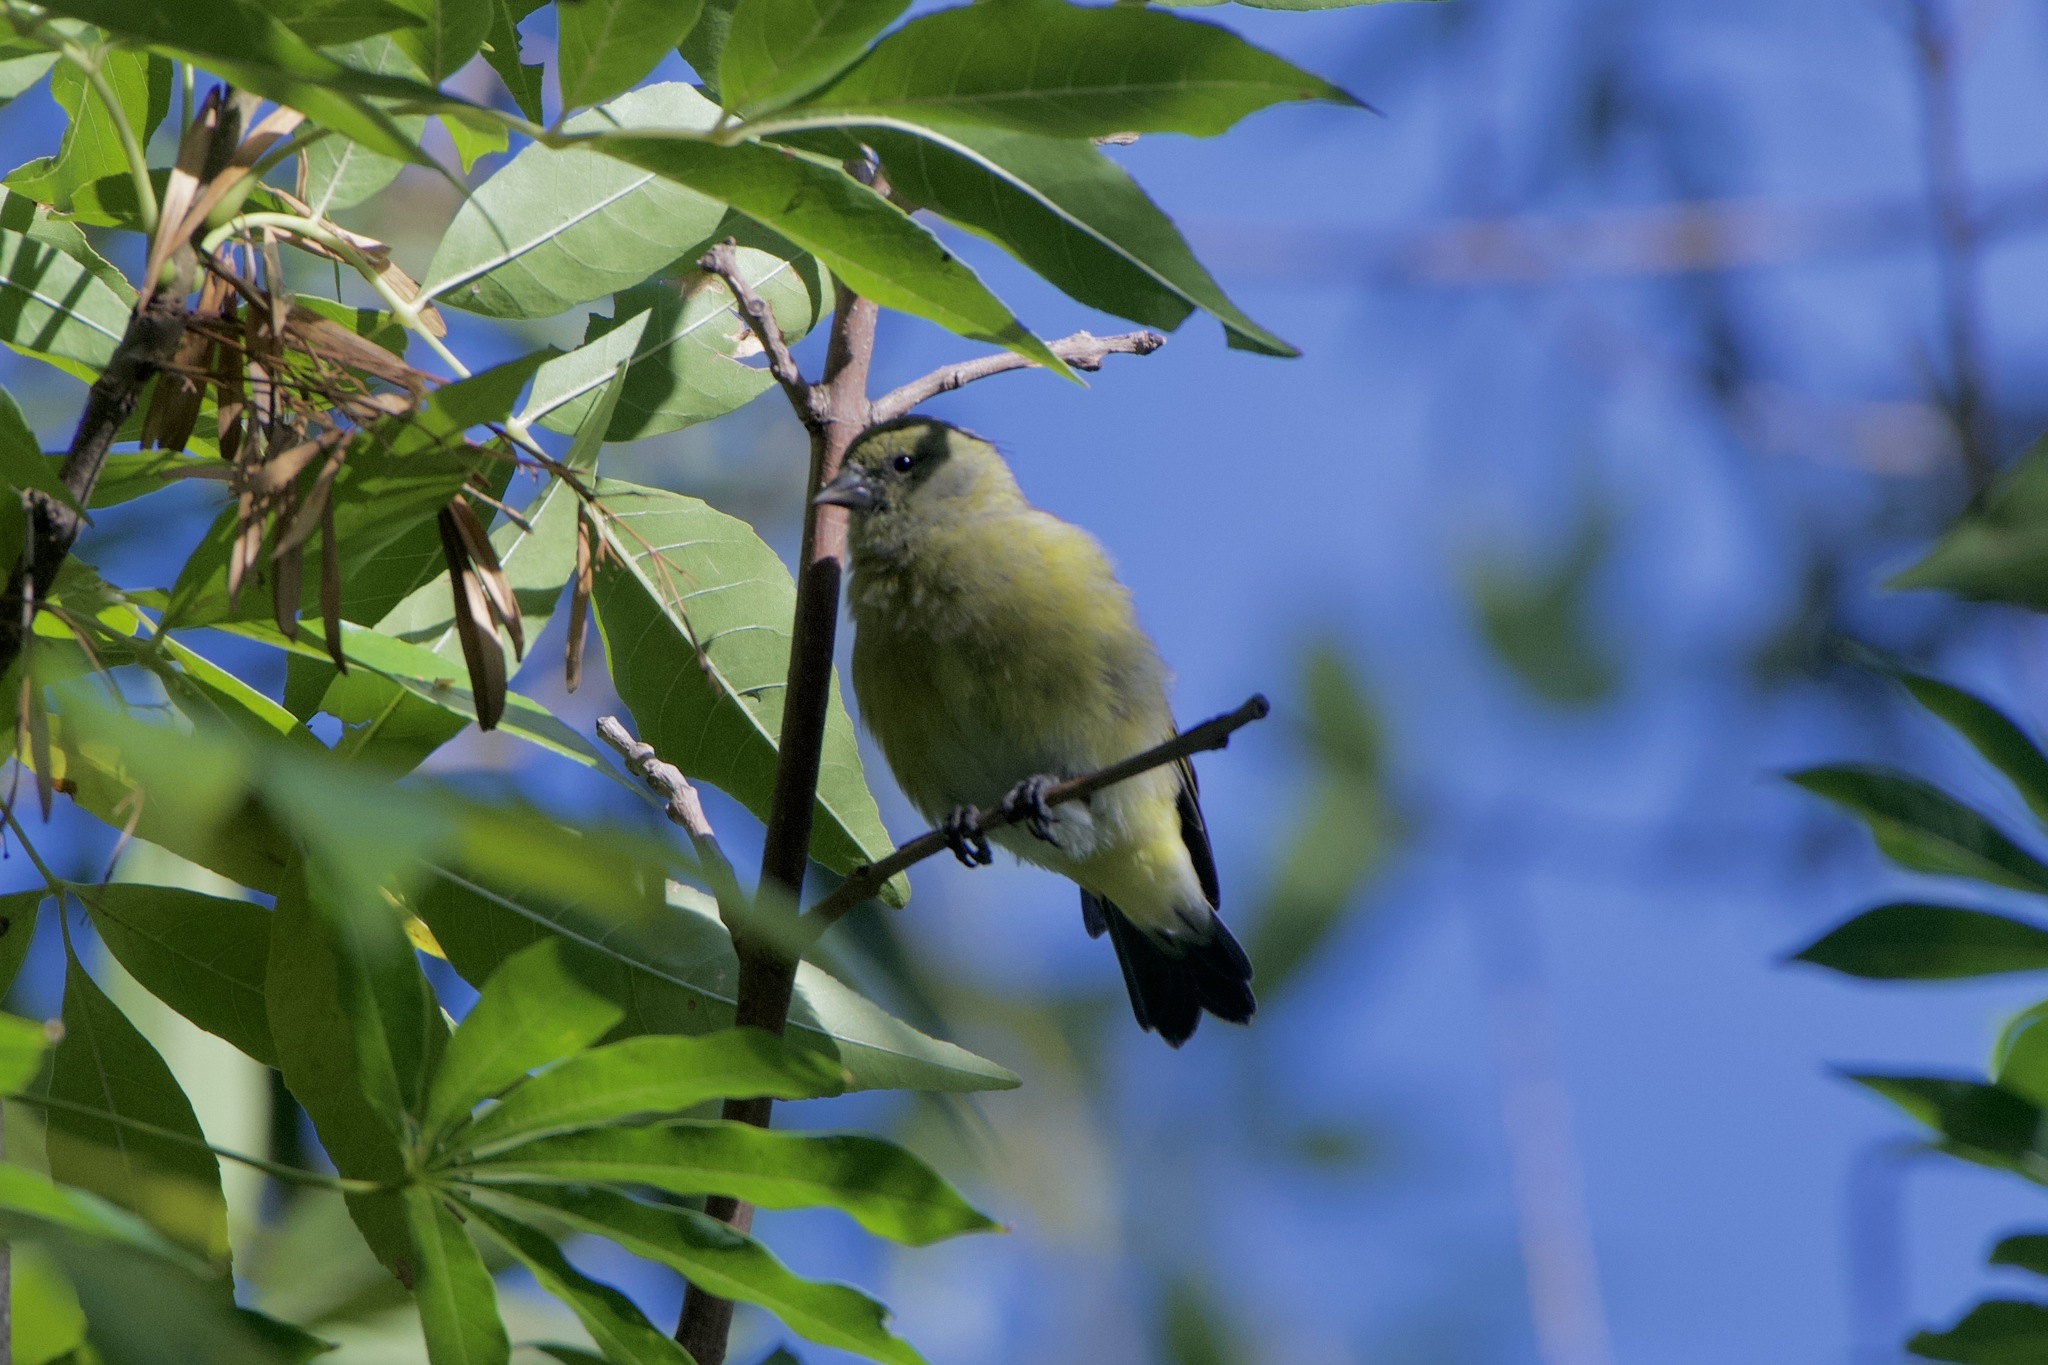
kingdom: Animalia
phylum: Chordata
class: Aves
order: Passeriformes
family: Fringillidae
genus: Spinus
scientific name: Spinus magellanicus
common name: Hooded siskin
